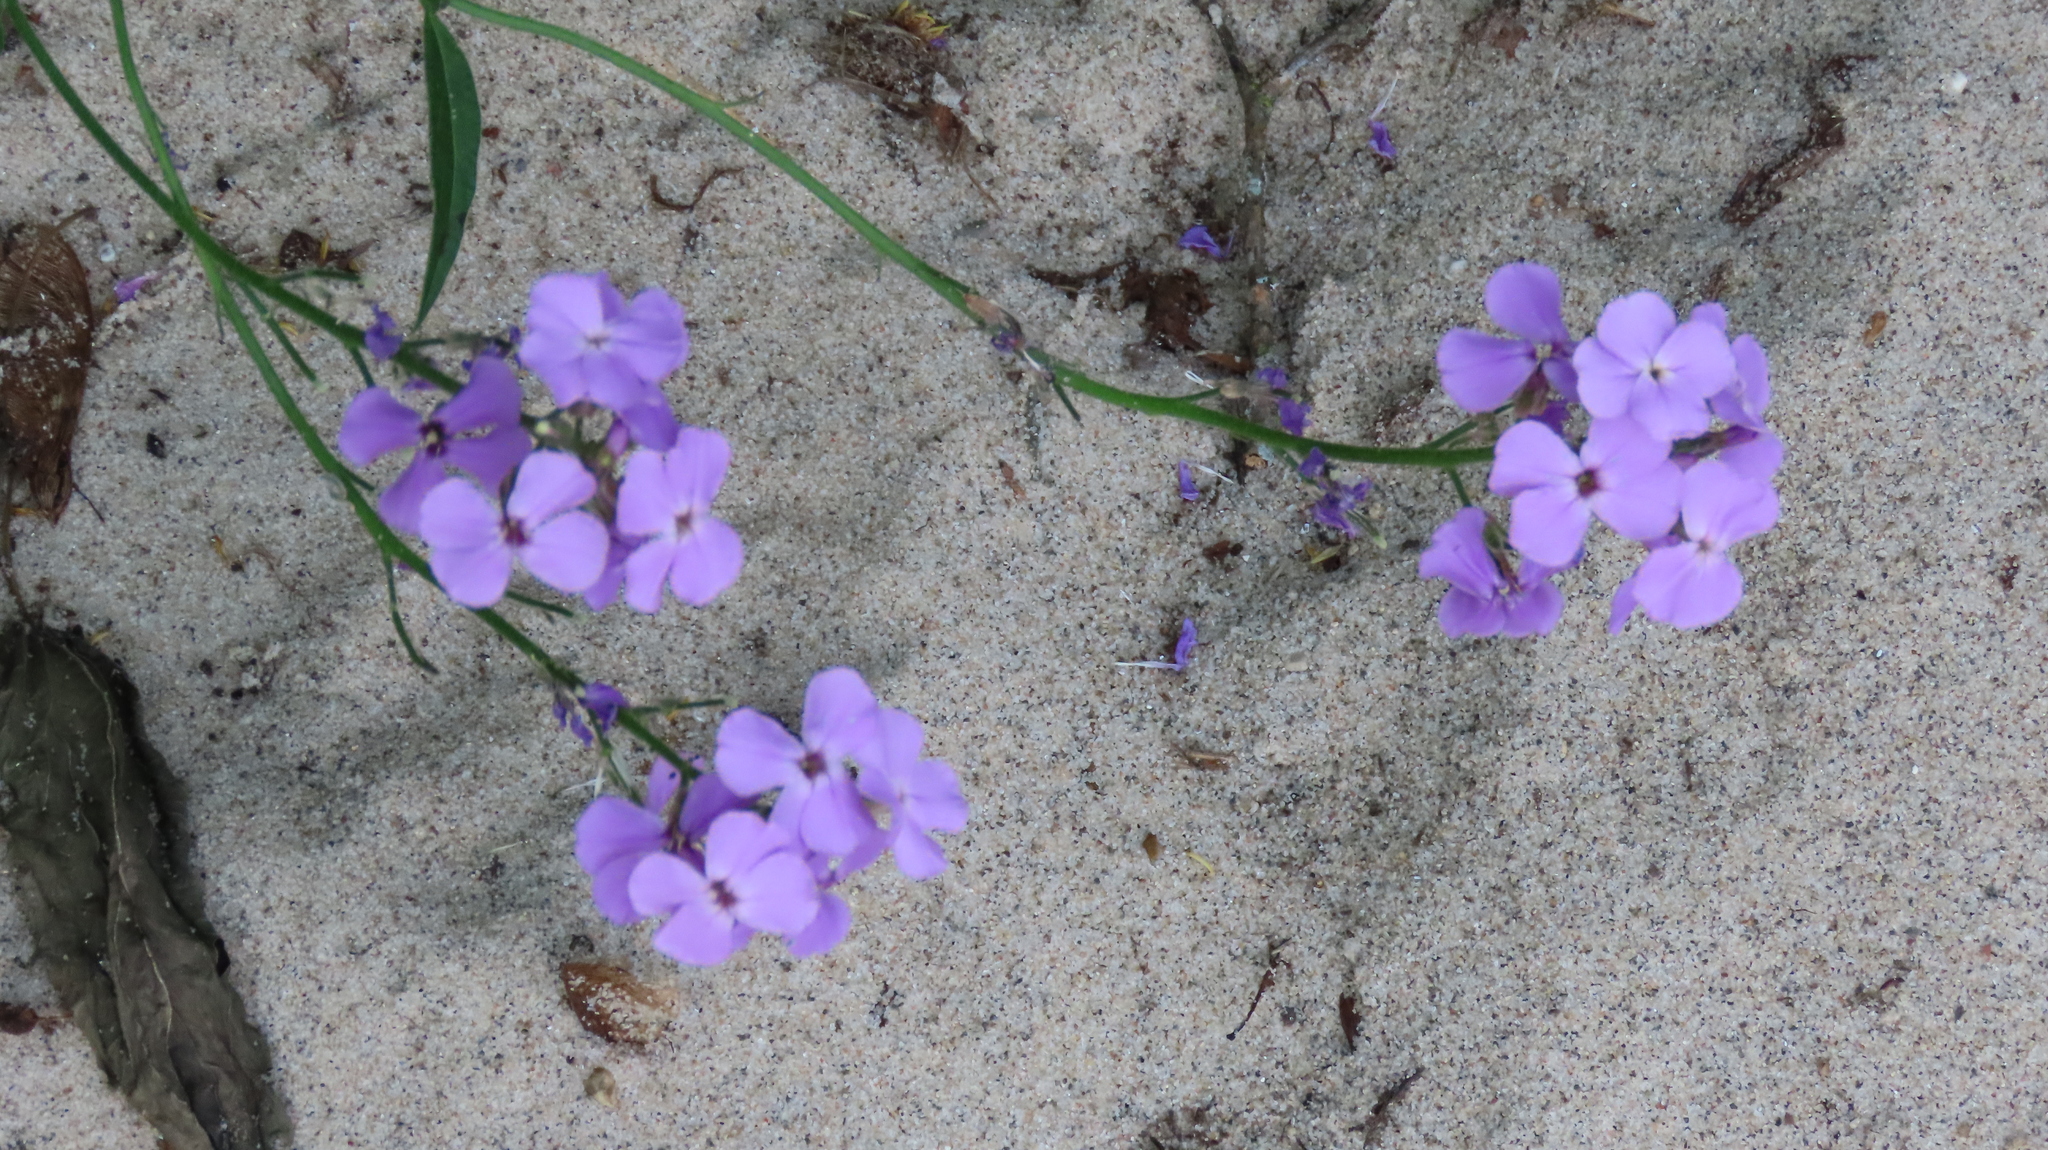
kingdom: Plantae
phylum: Tracheophyta
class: Magnoliopsida
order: Brassicales
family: Brassicaceae
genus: Hesperis
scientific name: Hesperis matronalis
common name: Dame's-violet
